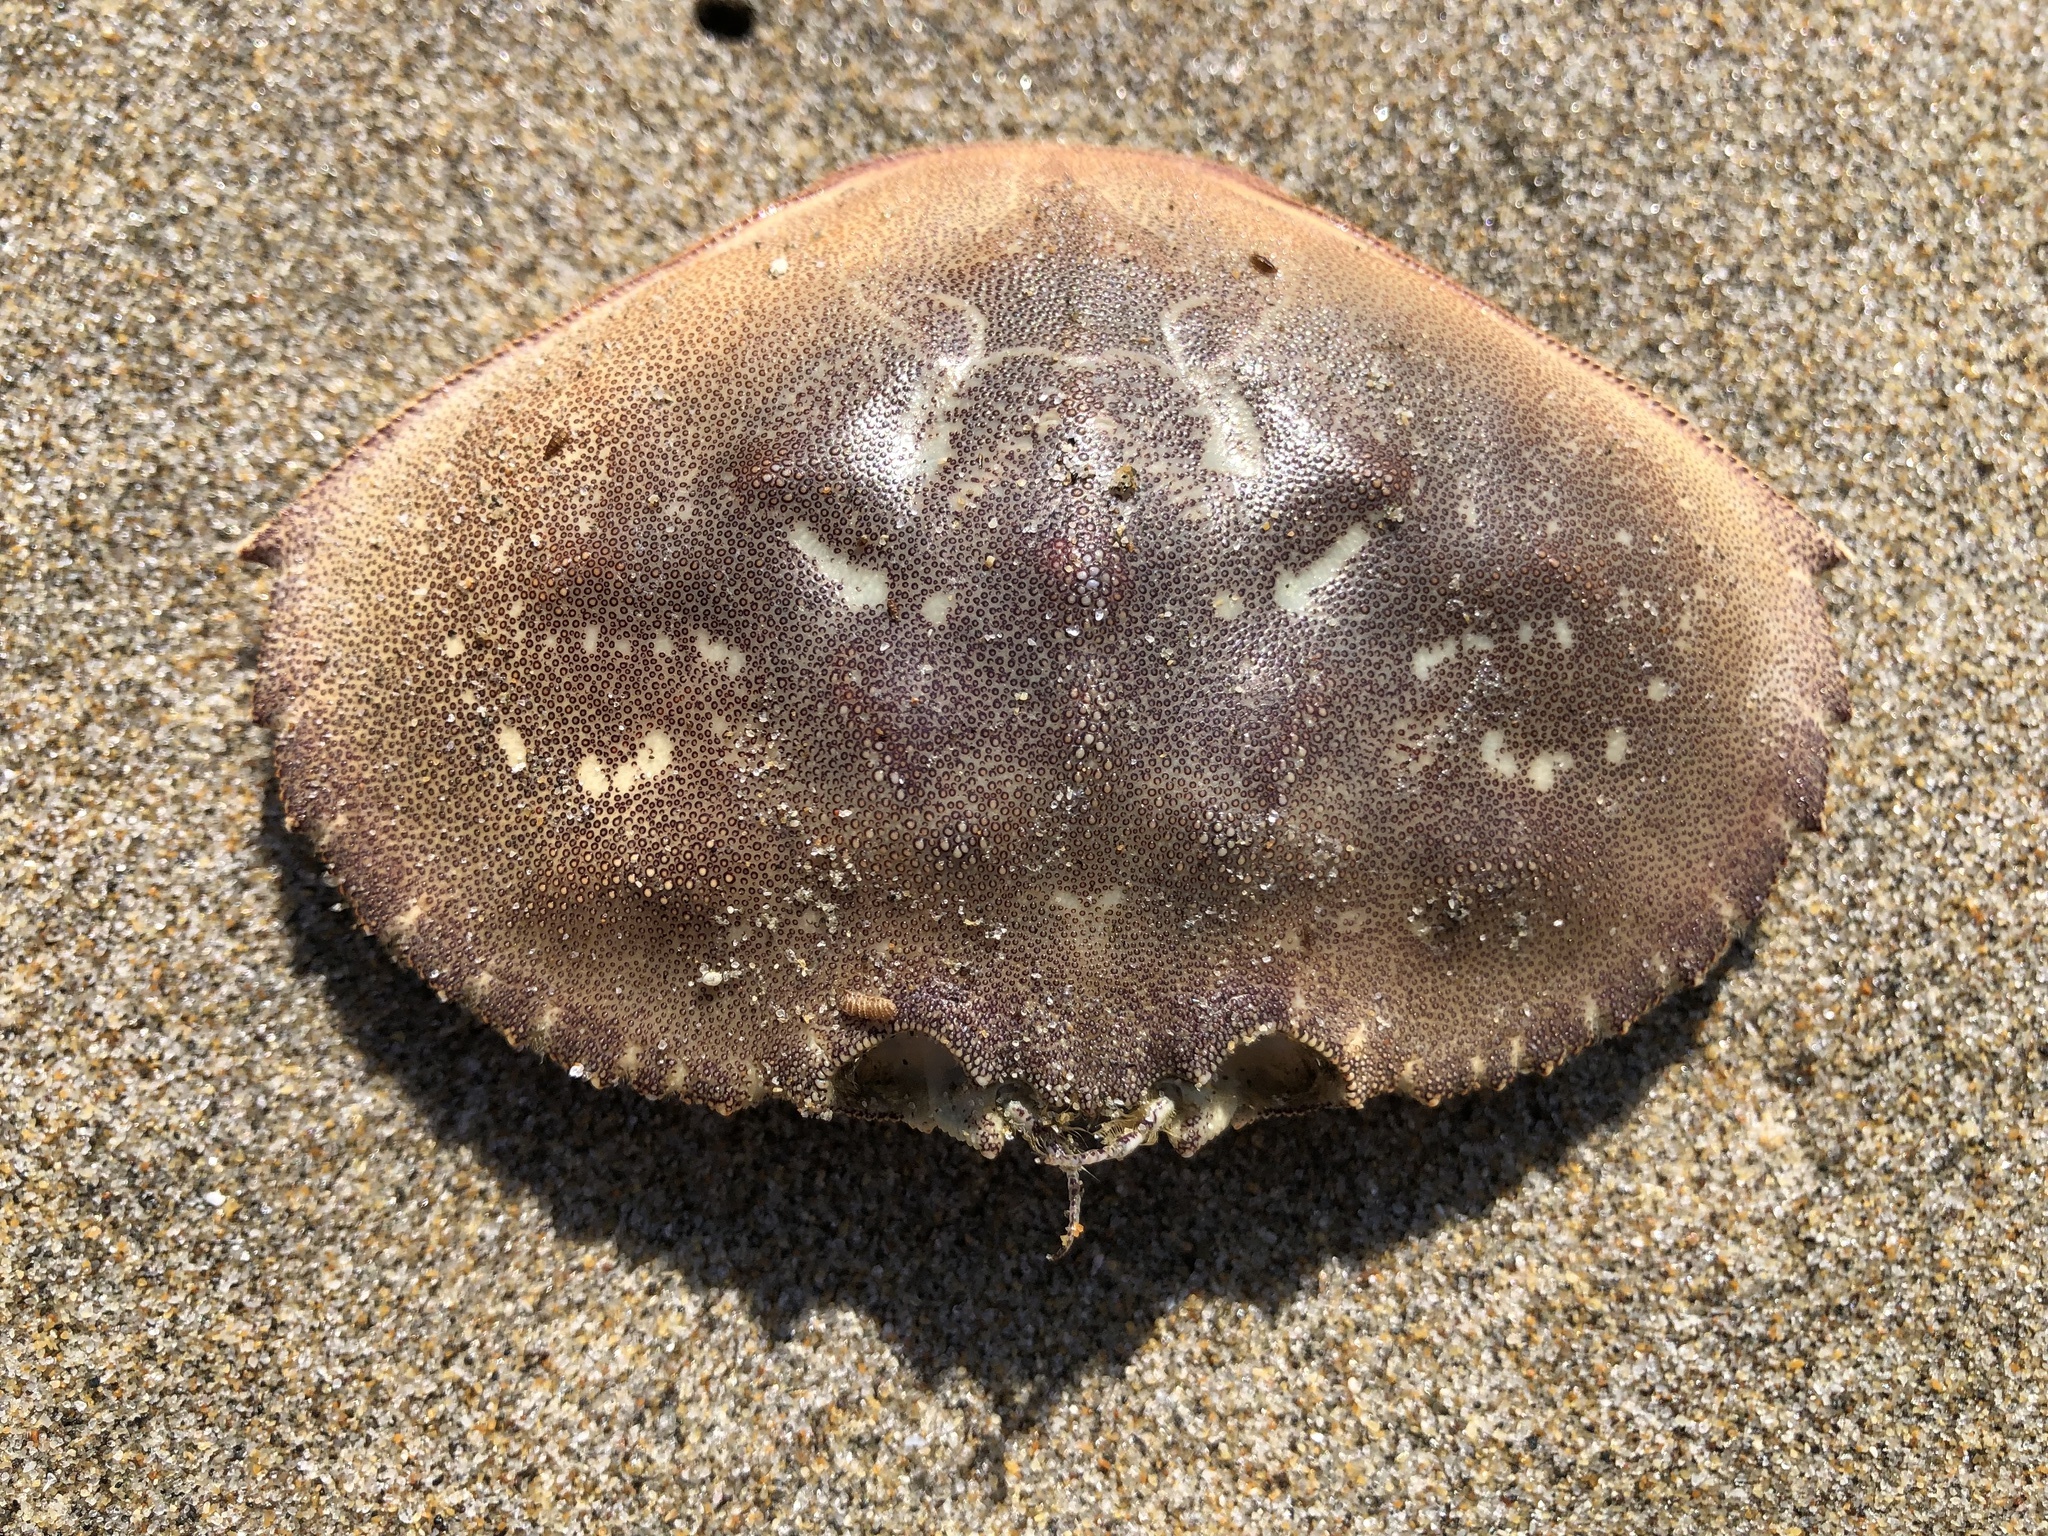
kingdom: Animalia
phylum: Arthropoda
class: Malacostraca
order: Decapoda
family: Cancridae
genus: Metacarcinus
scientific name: Metacarcinus magister
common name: Californian crab
